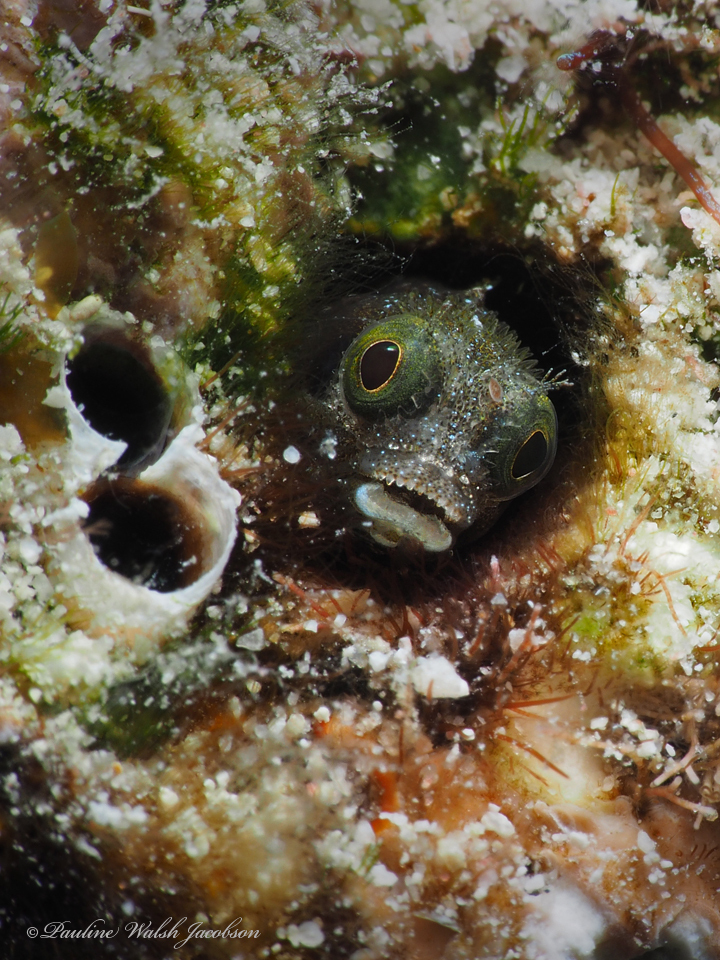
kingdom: Animalia
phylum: Chordata
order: Perciformes
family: Chaenopsidae
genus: Acanthemblemaria
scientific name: Acanthemblemaria spinosa
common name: Spinyhead blenny
